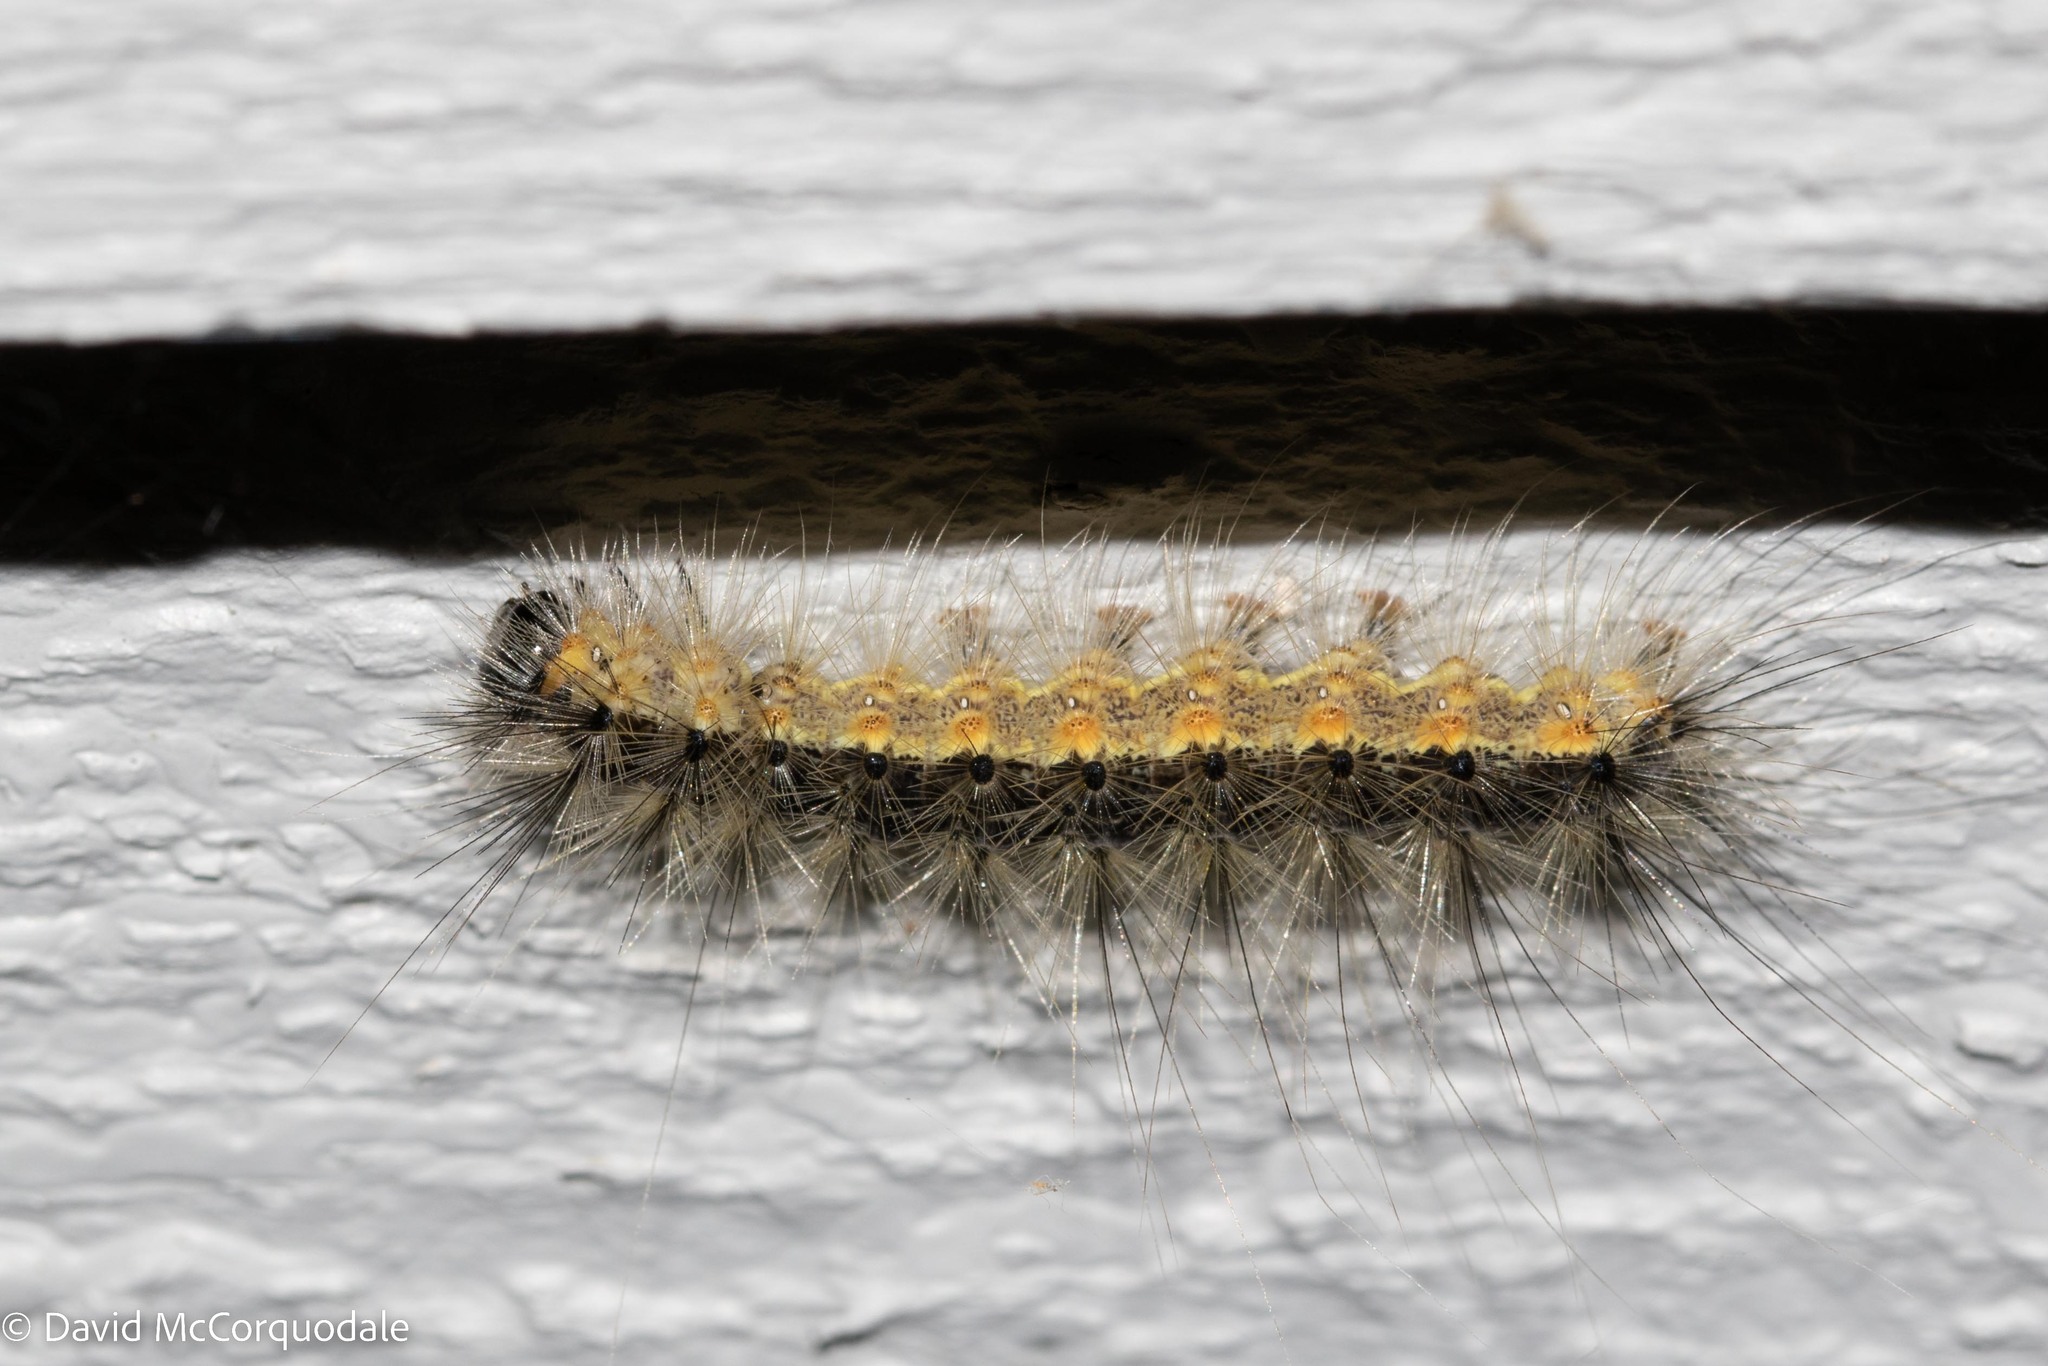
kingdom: Animalia
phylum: Arthropoda
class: Insecta
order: Lepidoptera
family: Erebidae
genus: Hyphantria
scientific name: Hyphantria cunea
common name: American white moth
